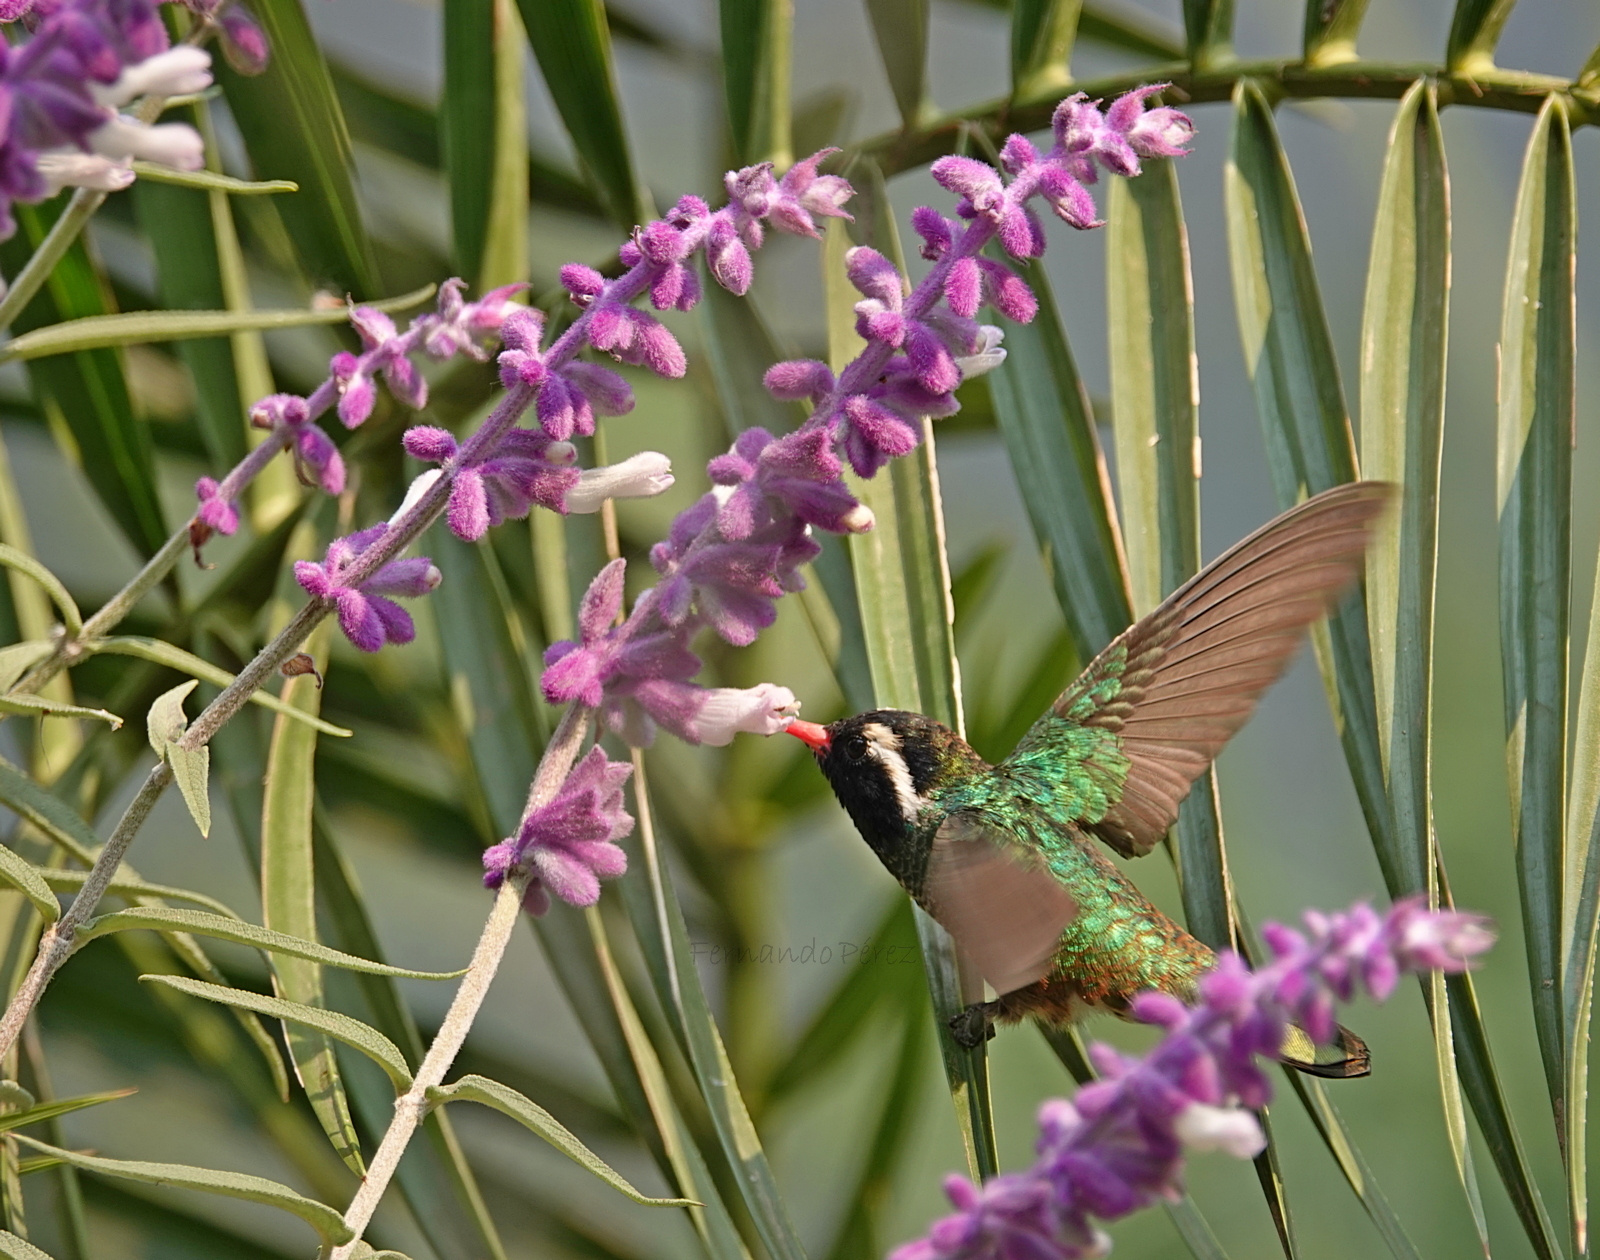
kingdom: Animalia
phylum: Chordata
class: Aves
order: Apodiformes
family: Trochilidae
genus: Basilinna
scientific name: Basilinna leucotis
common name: White-eared hummingbird
